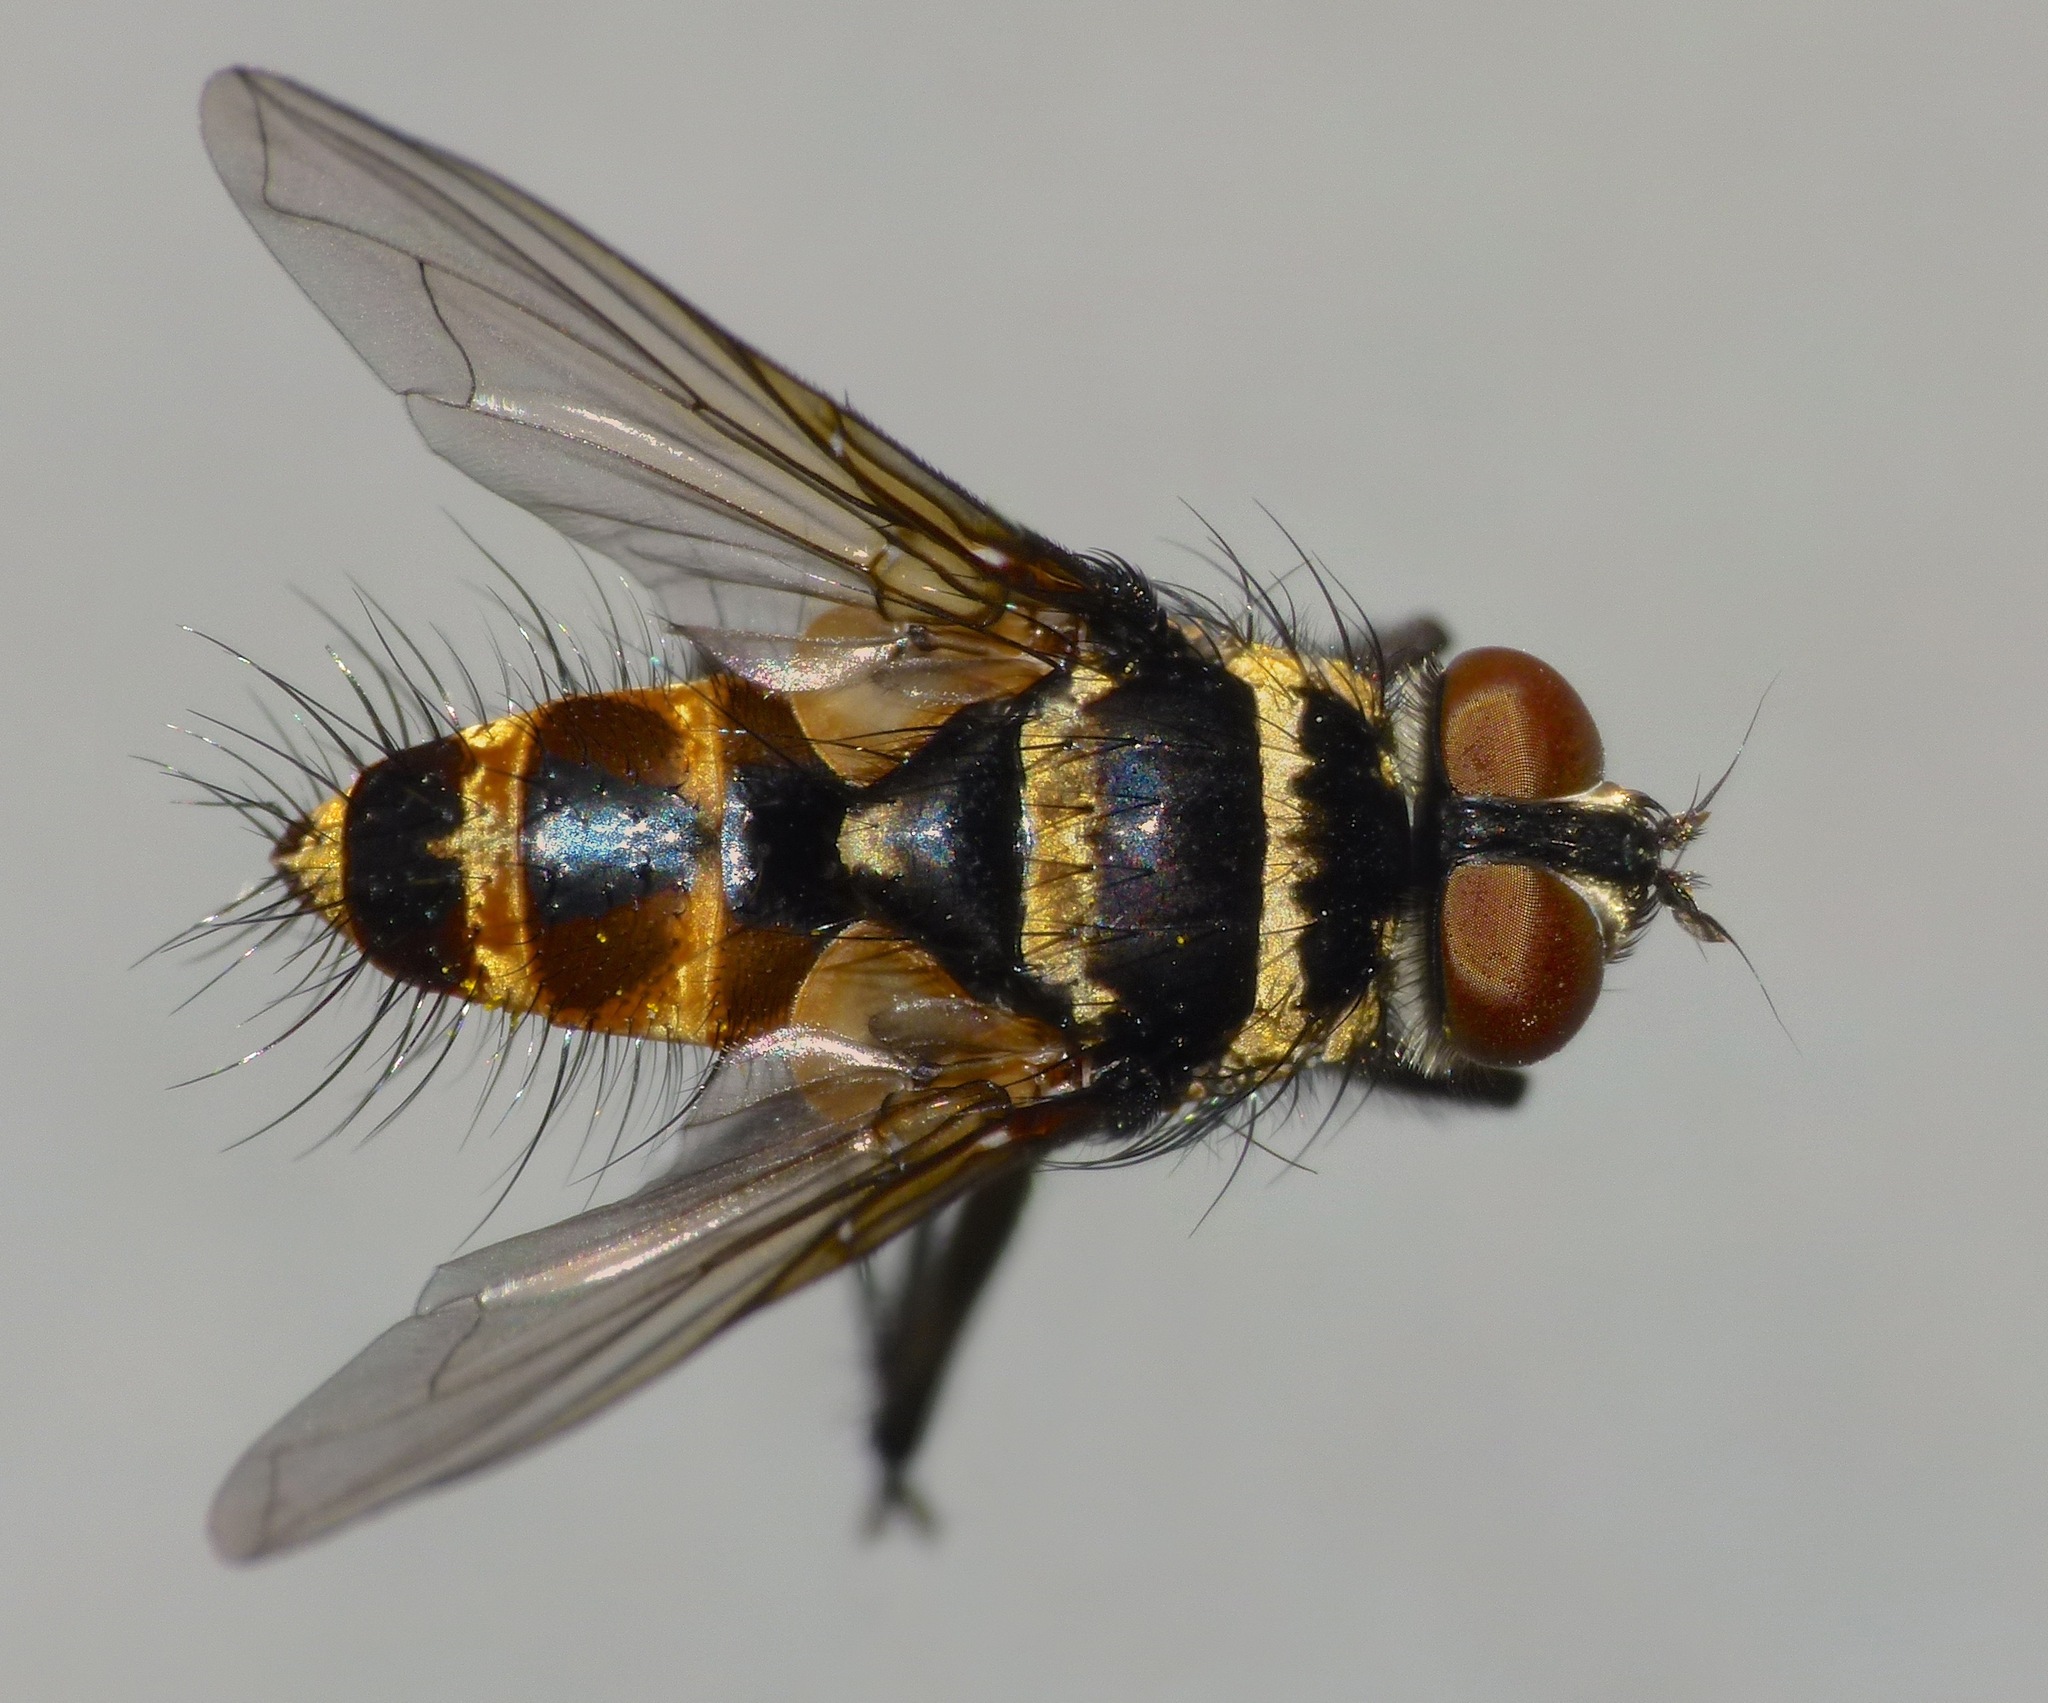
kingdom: Animalia
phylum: Arthropoda
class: Insecta
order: Diptera
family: Tachinidae
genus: Trigonospila
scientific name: Trigonospila brevifacies
